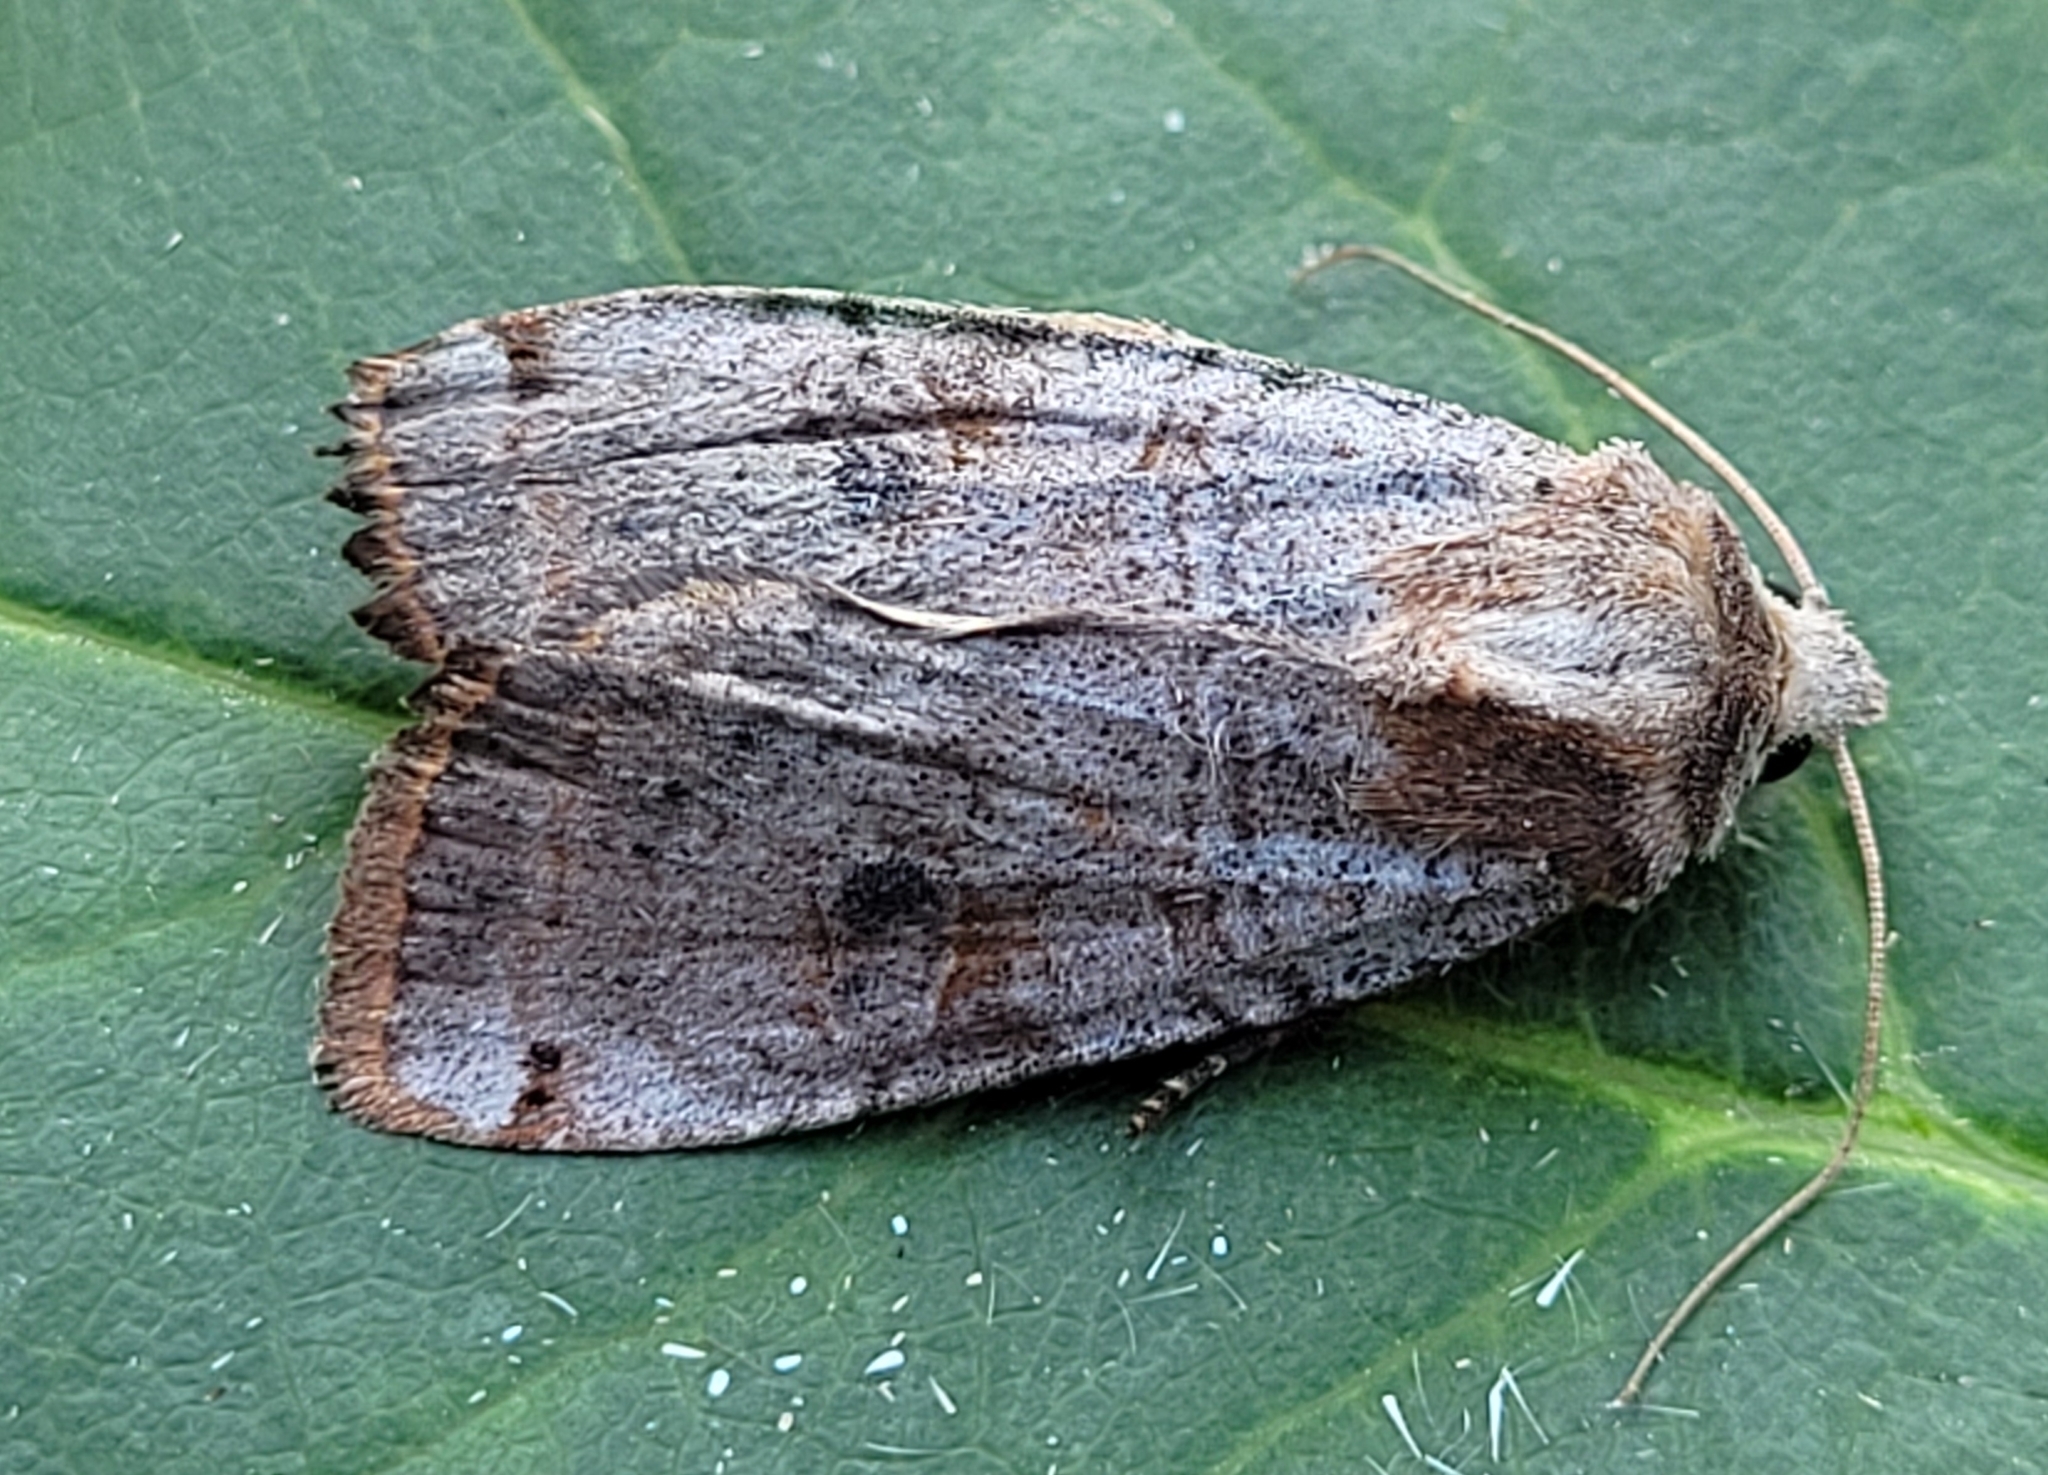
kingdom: Animalia
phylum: Arthropoda
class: Insecta
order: Lepidoptera
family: Noctuidae
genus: Xestia
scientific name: Xestia smithii
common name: Smith's dart
